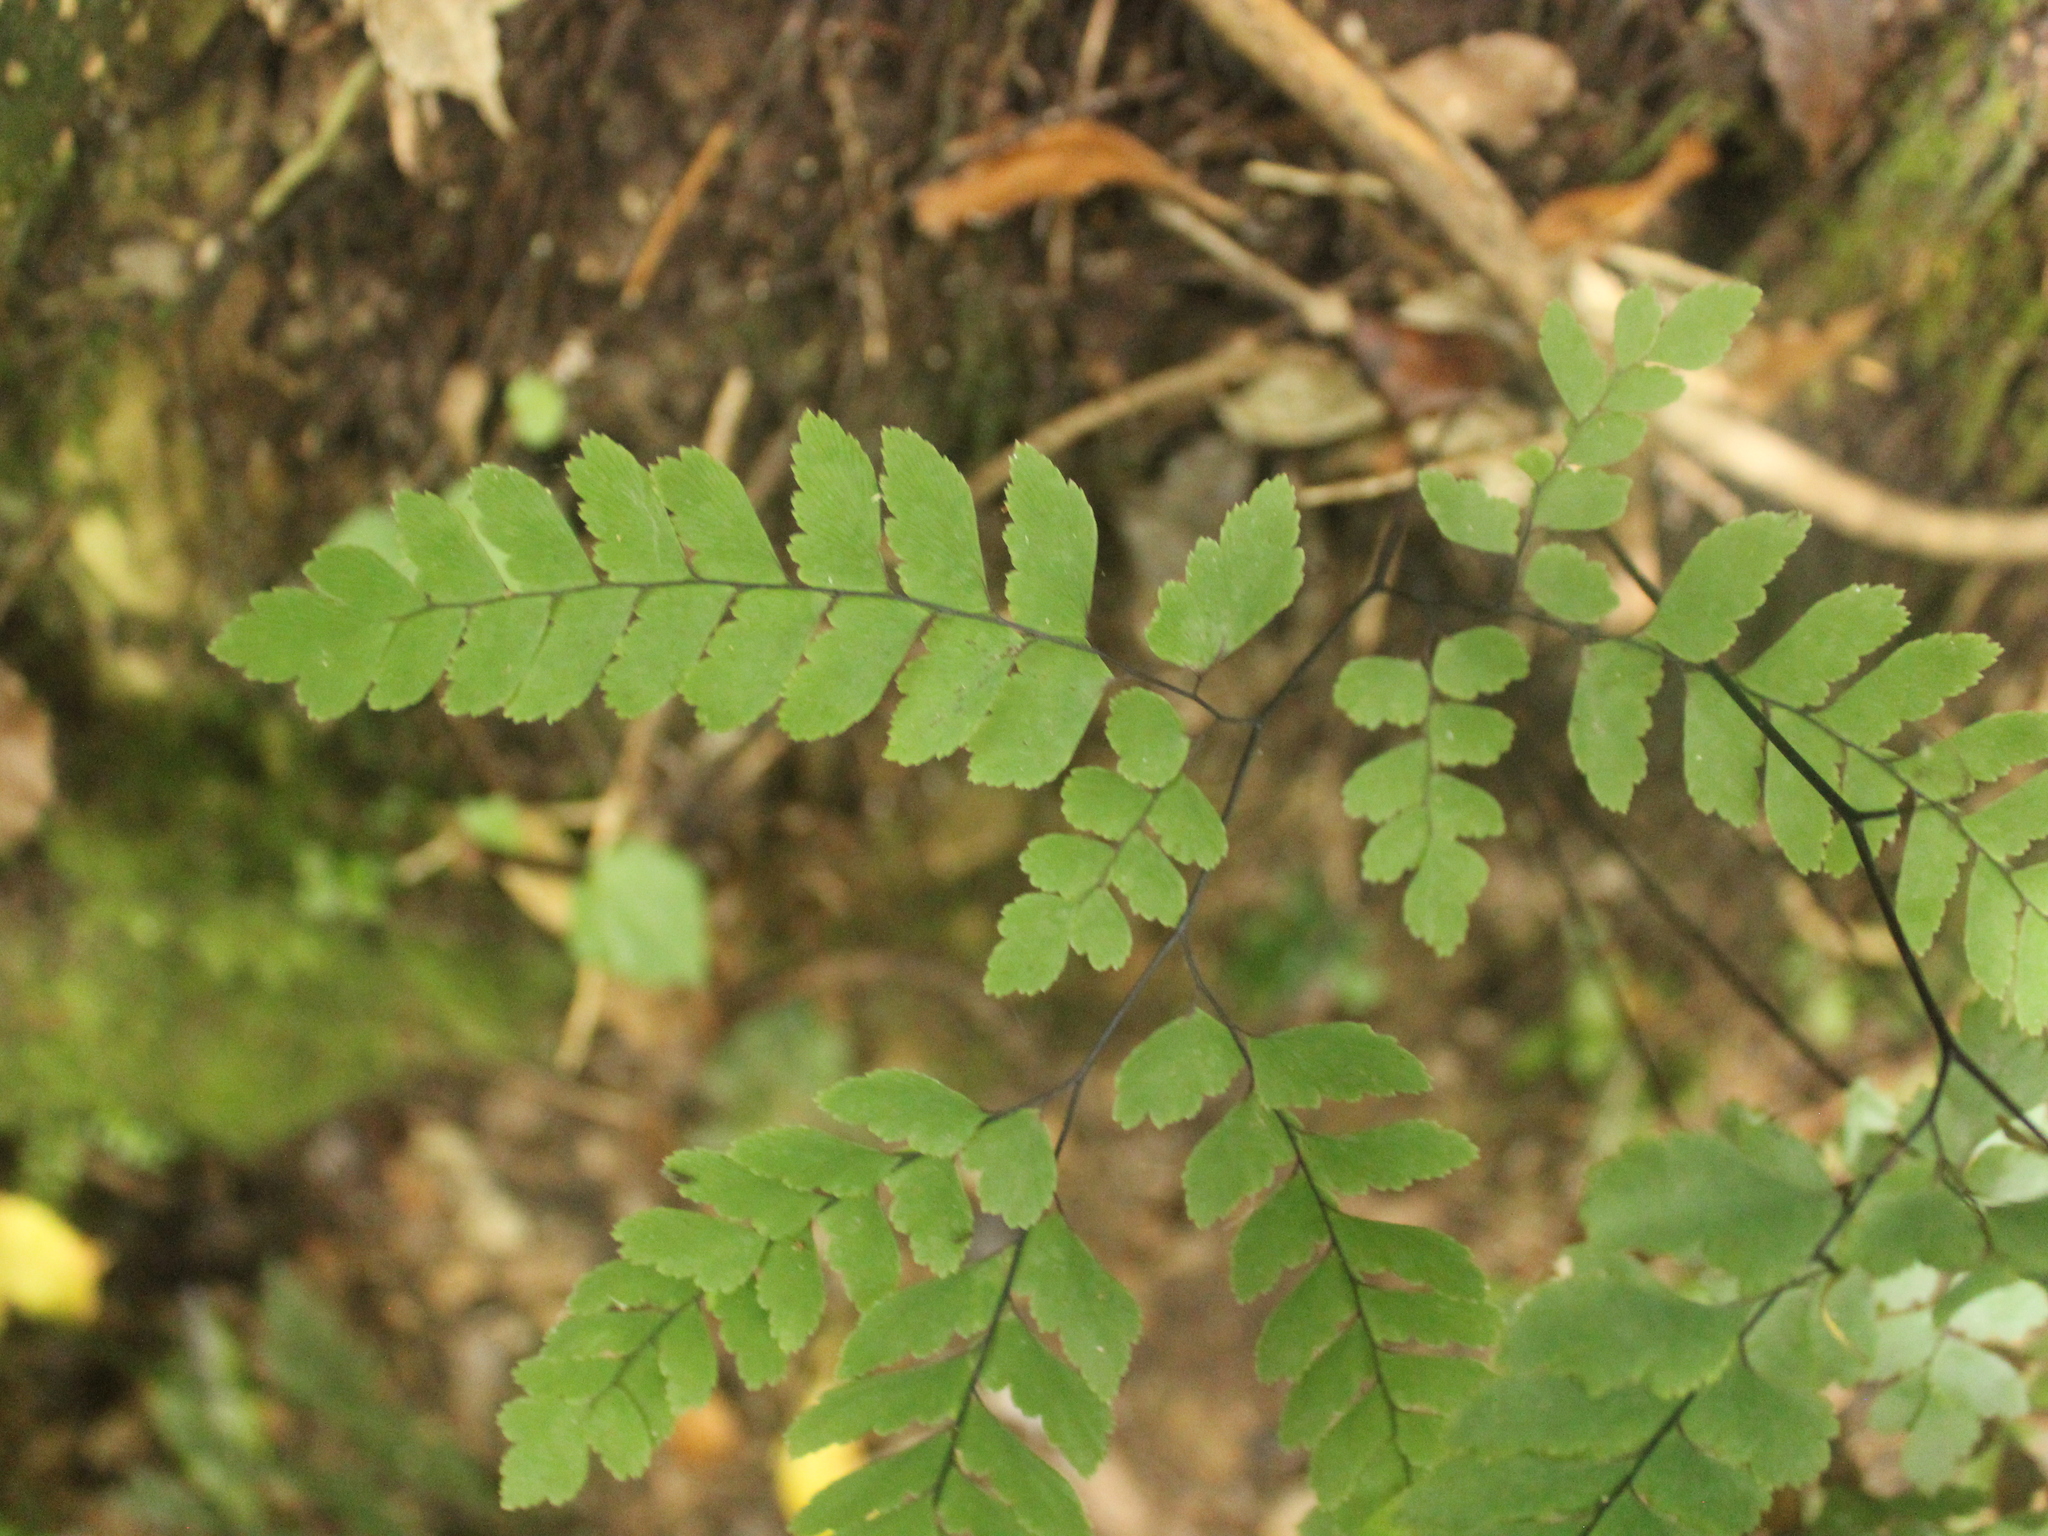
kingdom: Plantae
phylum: Tracheophyta
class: Polypodiopsida
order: Polypodiales
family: Pteridaceae
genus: Adiantum
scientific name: Adiantum cunninghamii
